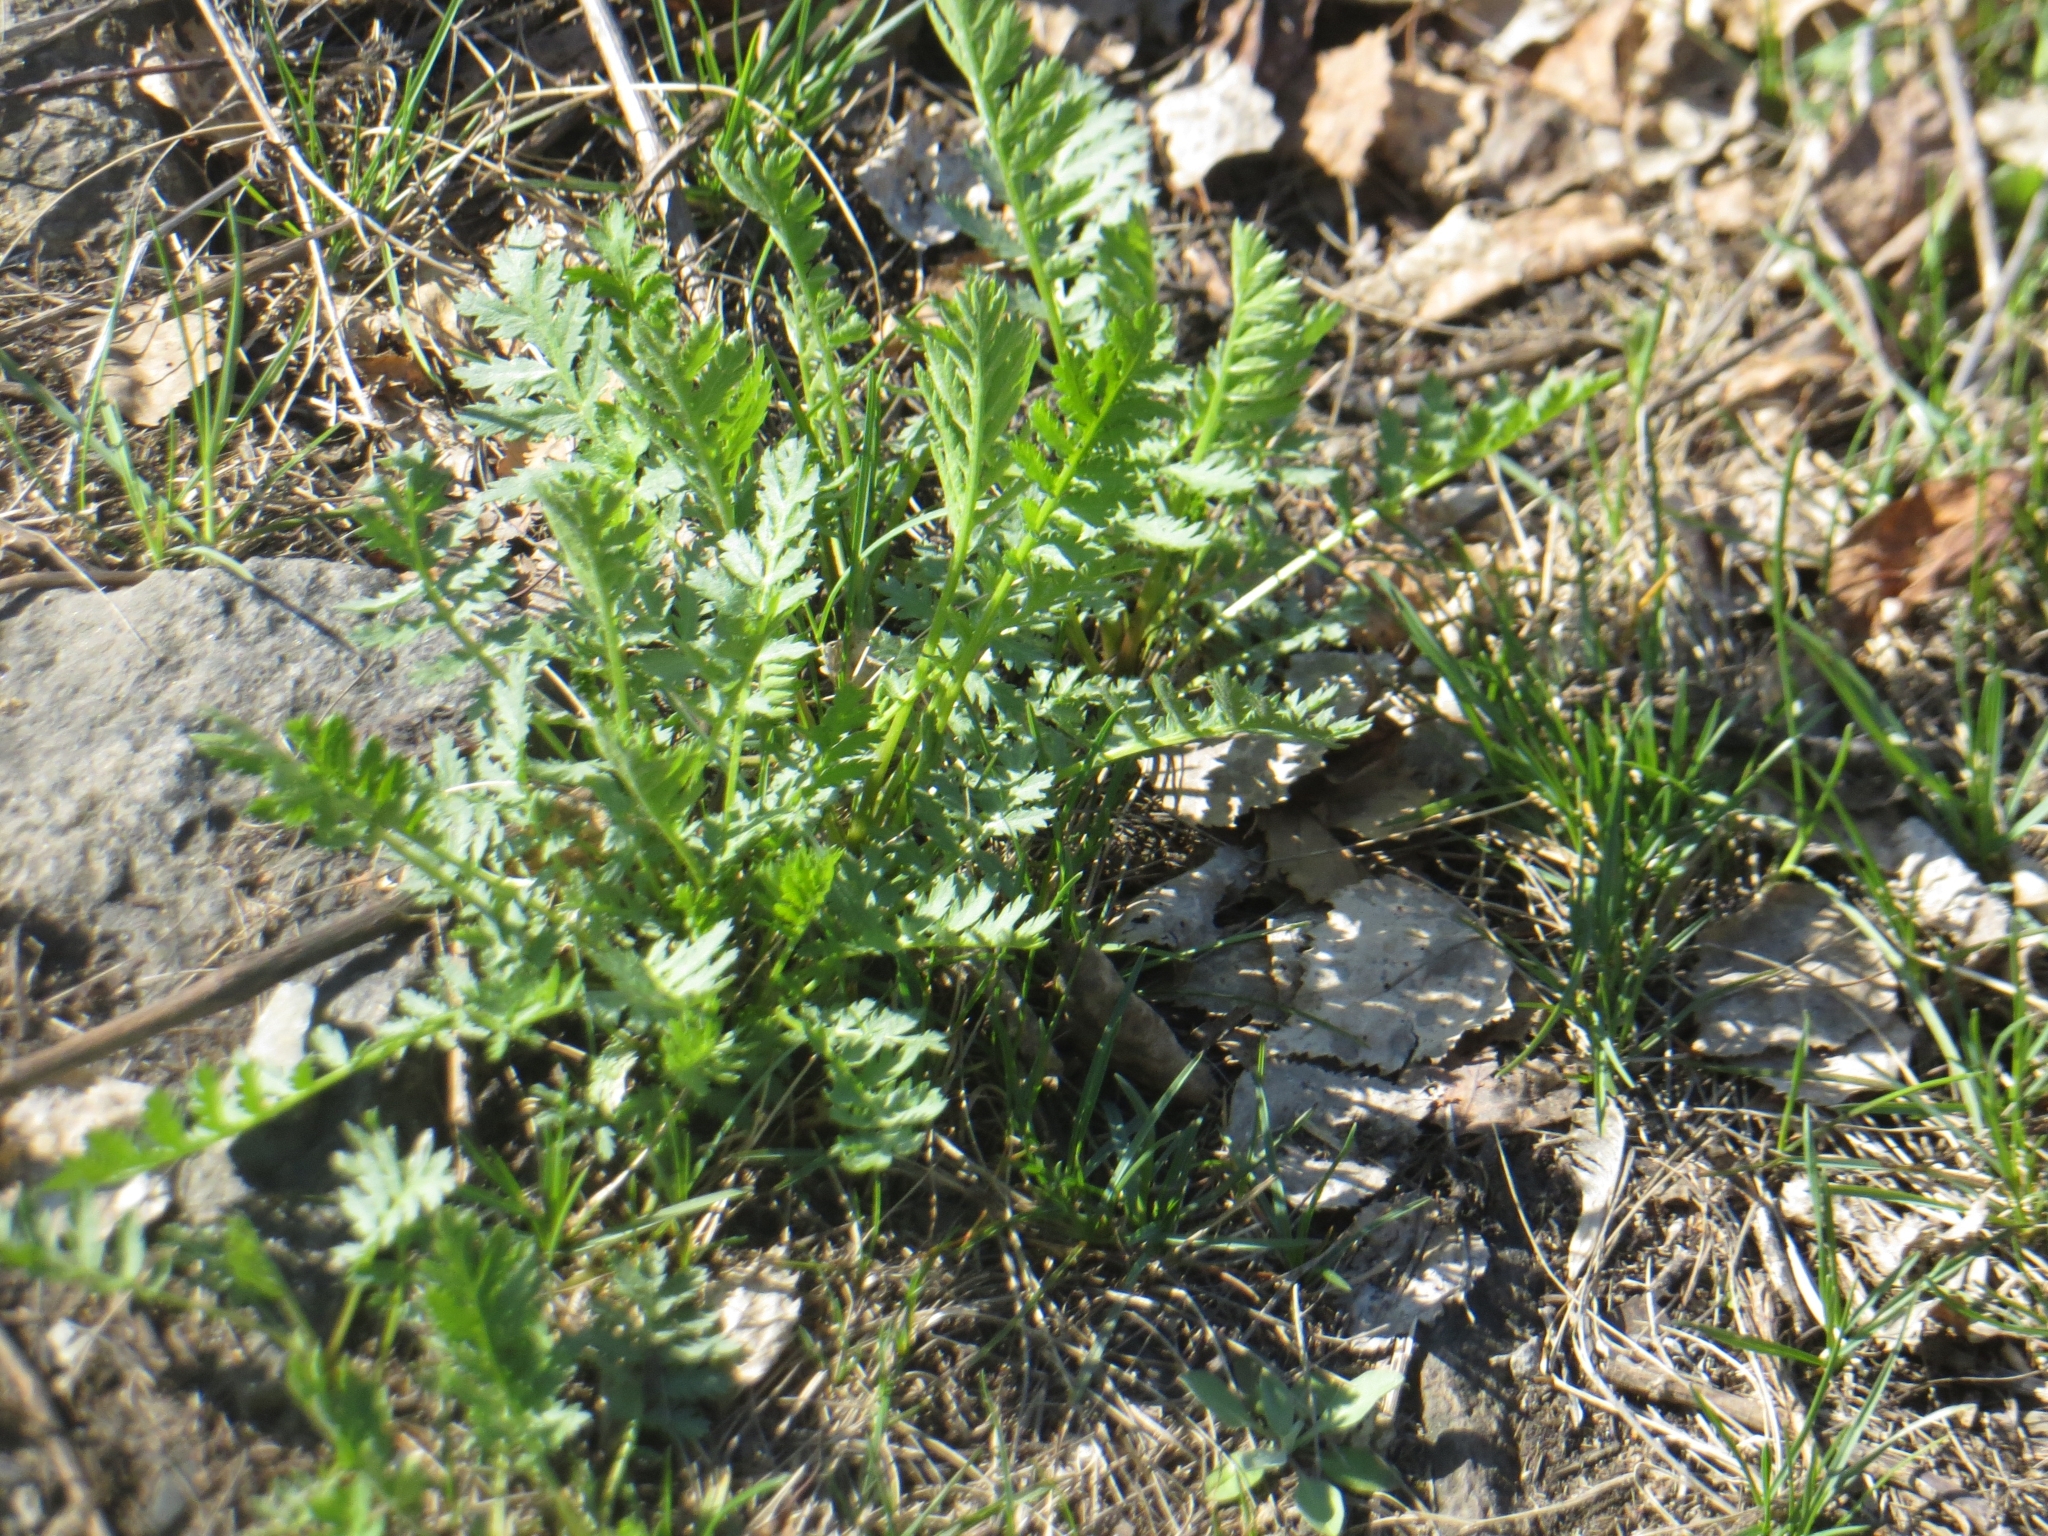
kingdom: Plantae
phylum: Tracheophyta
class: Magnoliopsida
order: Asterales
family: Asteraceae
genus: Tanacetum
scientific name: Tanacetum vulgare
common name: Common tansy
